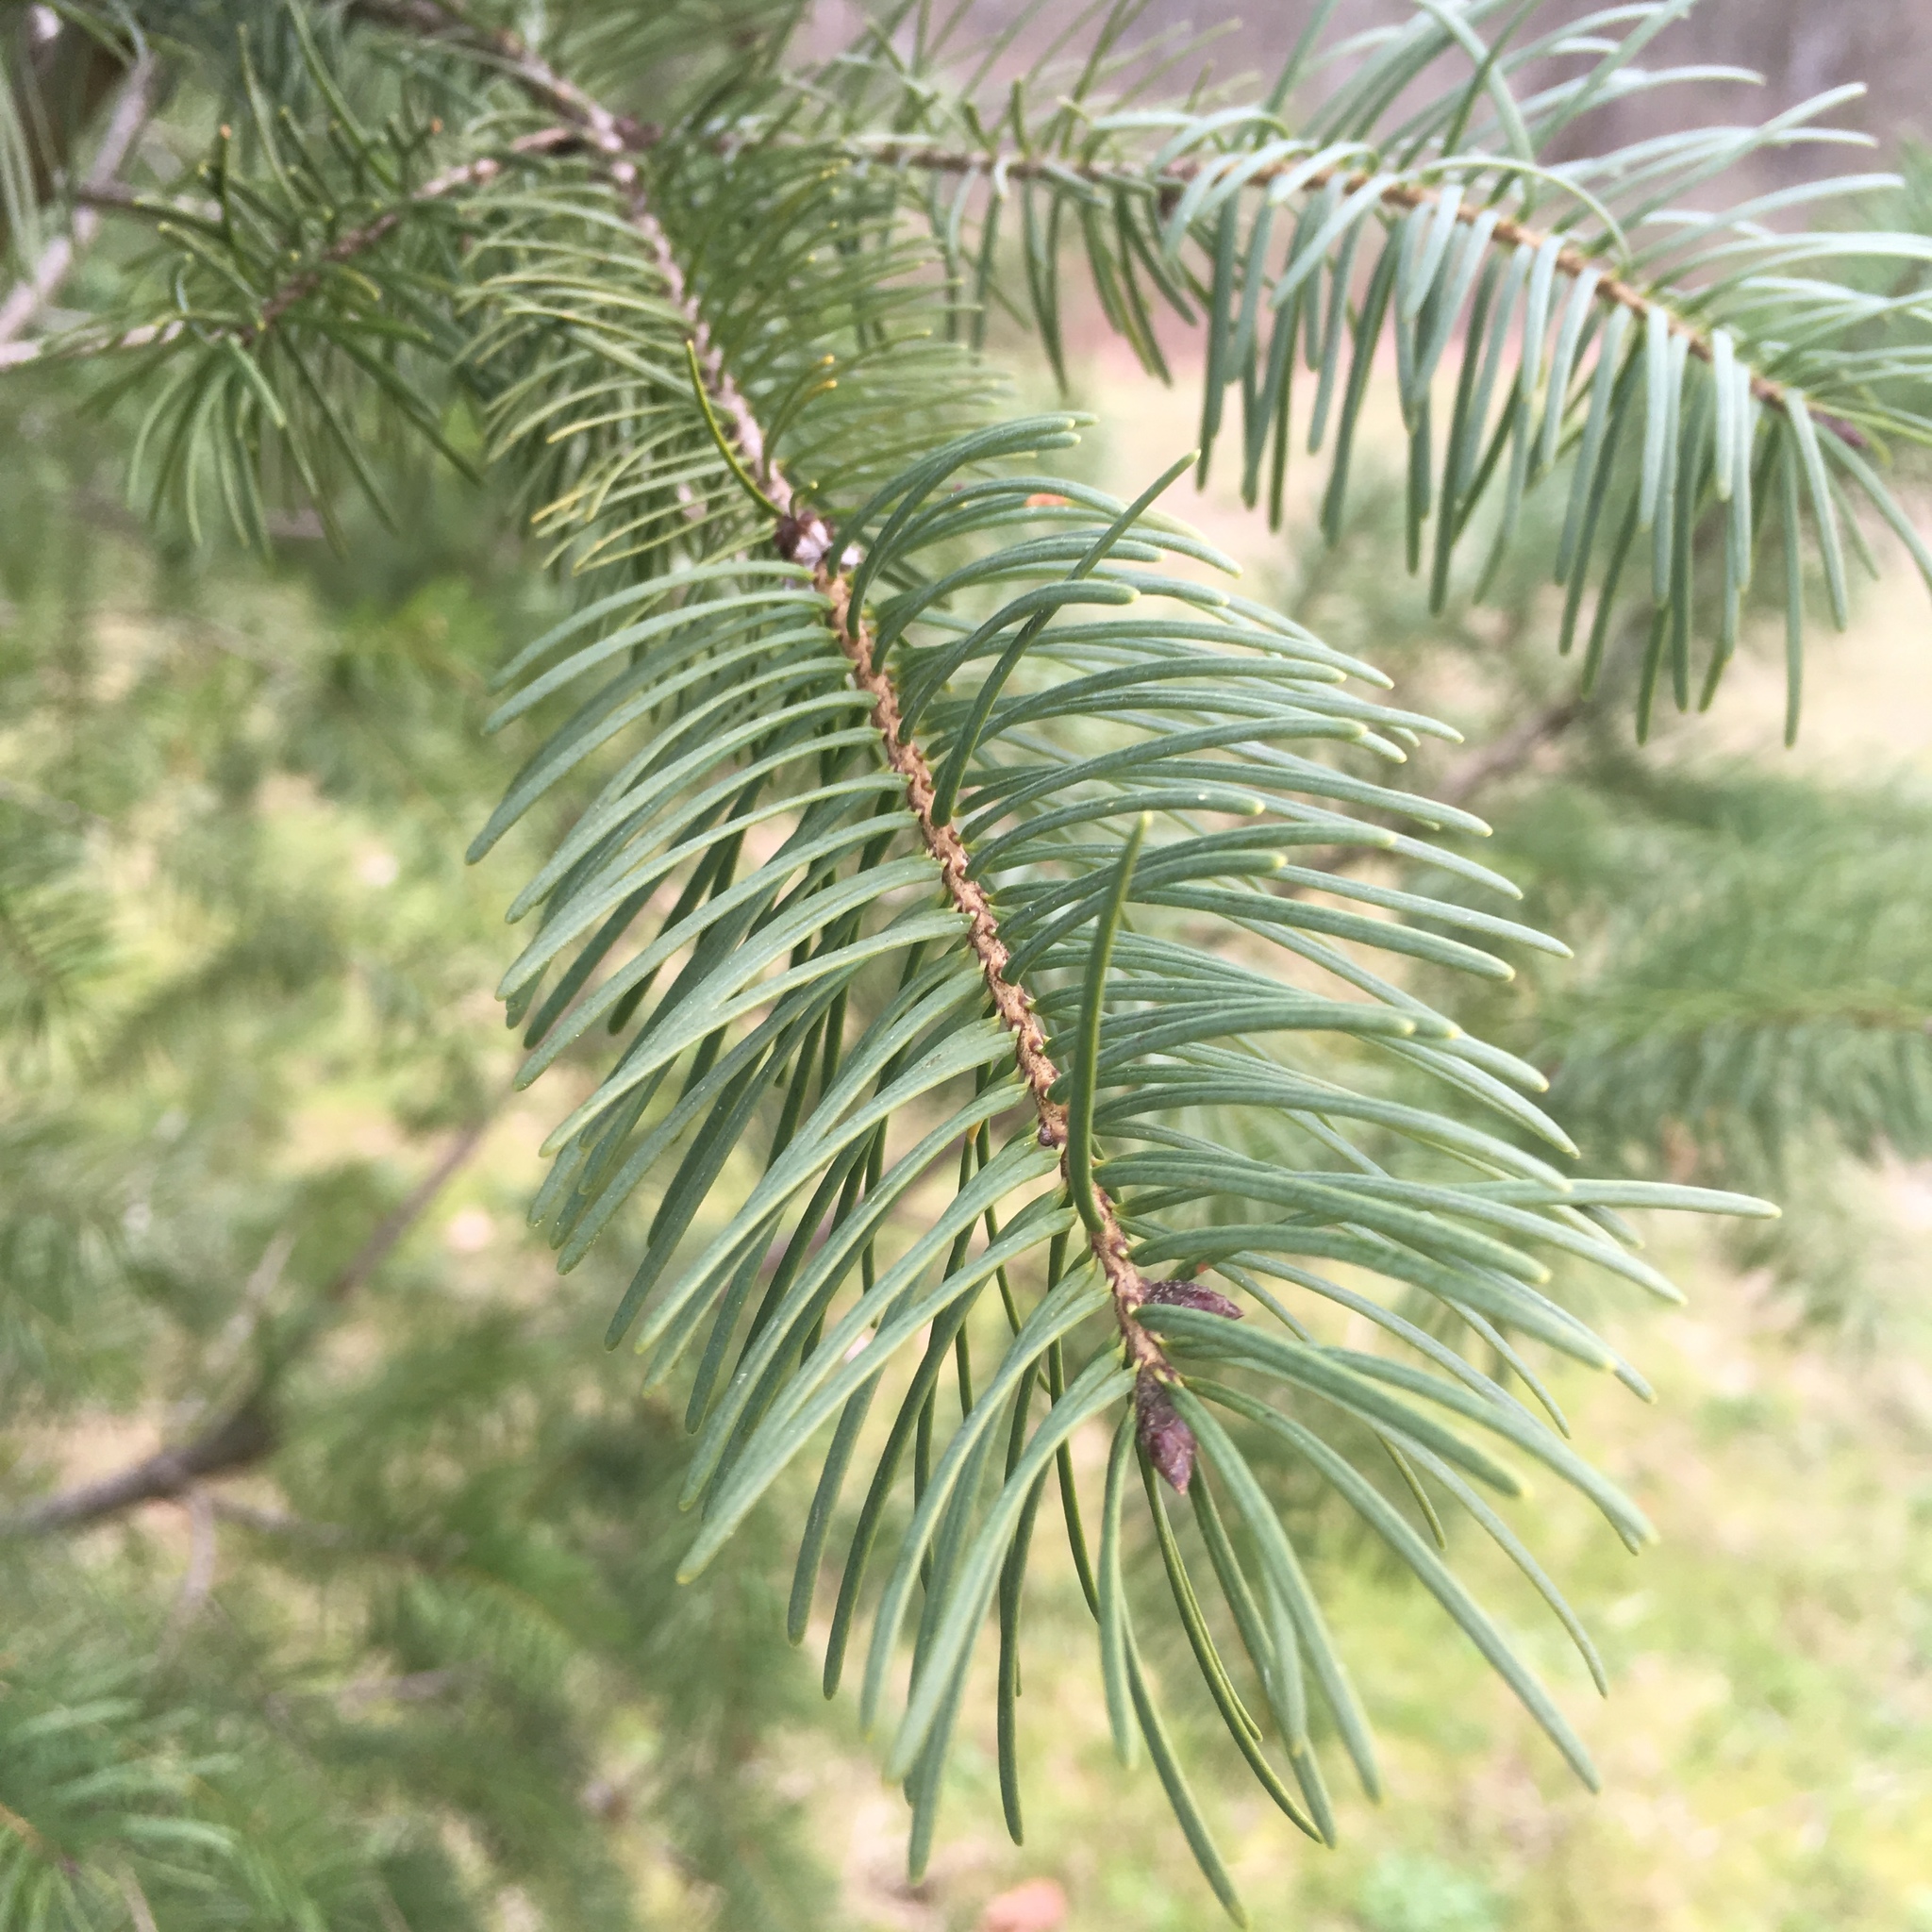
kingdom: Plantae
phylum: Tracheophyta
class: Pinopsida
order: Pinales
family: Pinaceae
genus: Pseudotsuga
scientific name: Pseudotsuga menziesii
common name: Douglas fir
